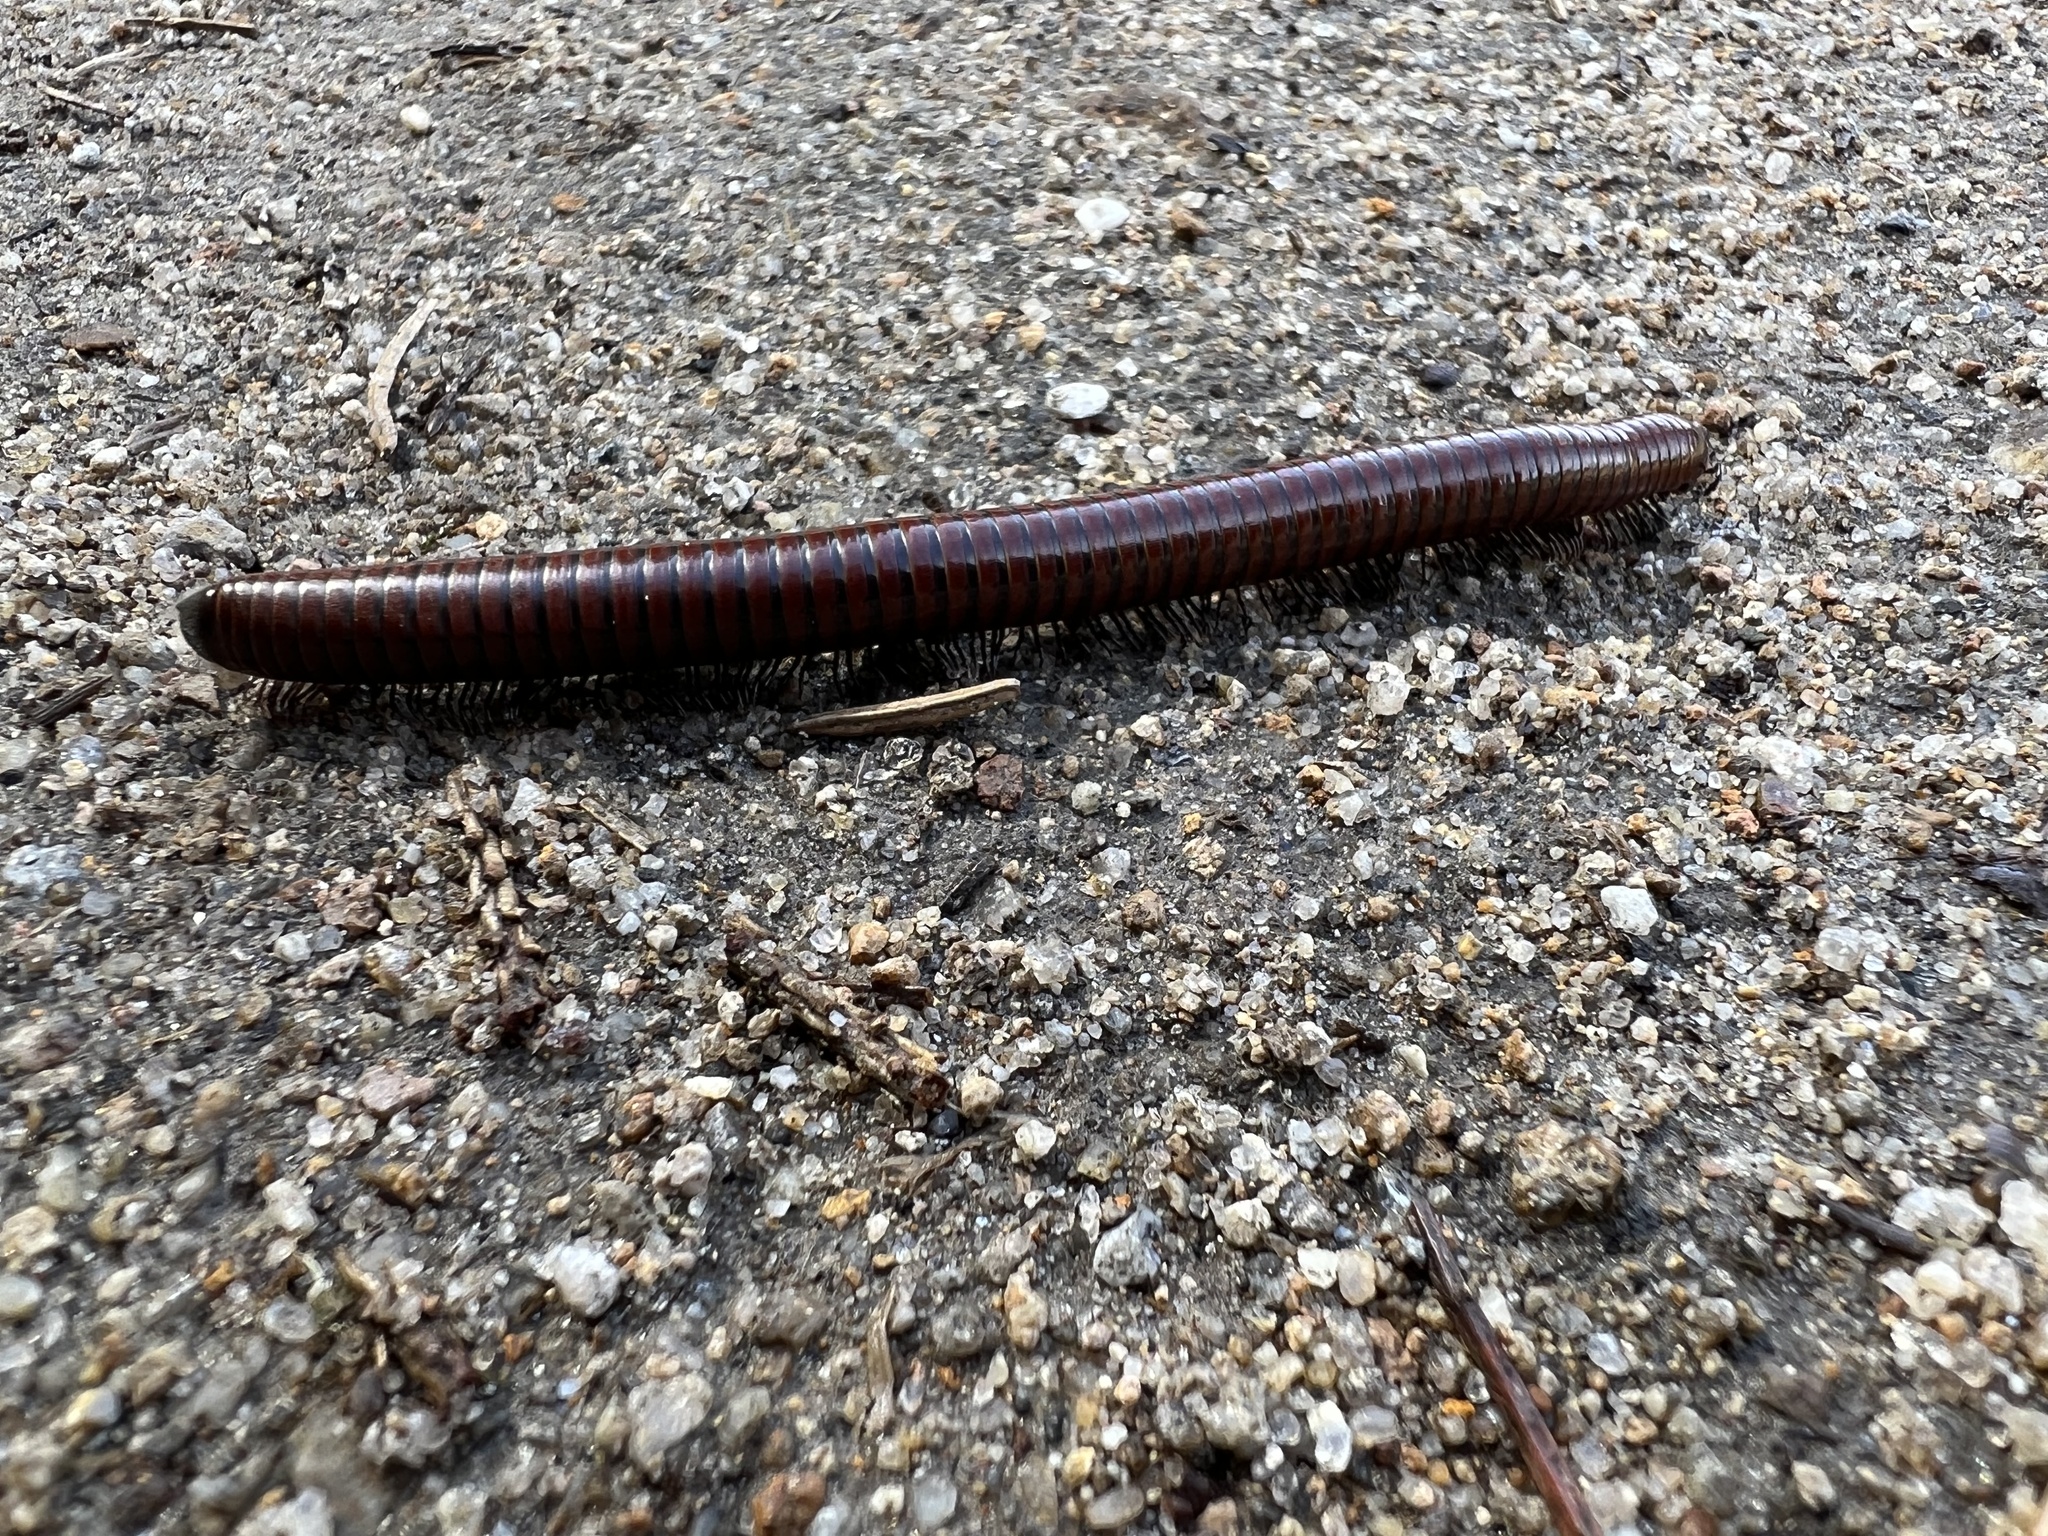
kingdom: Animalia
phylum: Arthropoda
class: Diplopoda
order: Julida
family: Julidae
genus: Pachyiulus
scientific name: Pachyiulus hungaricus
